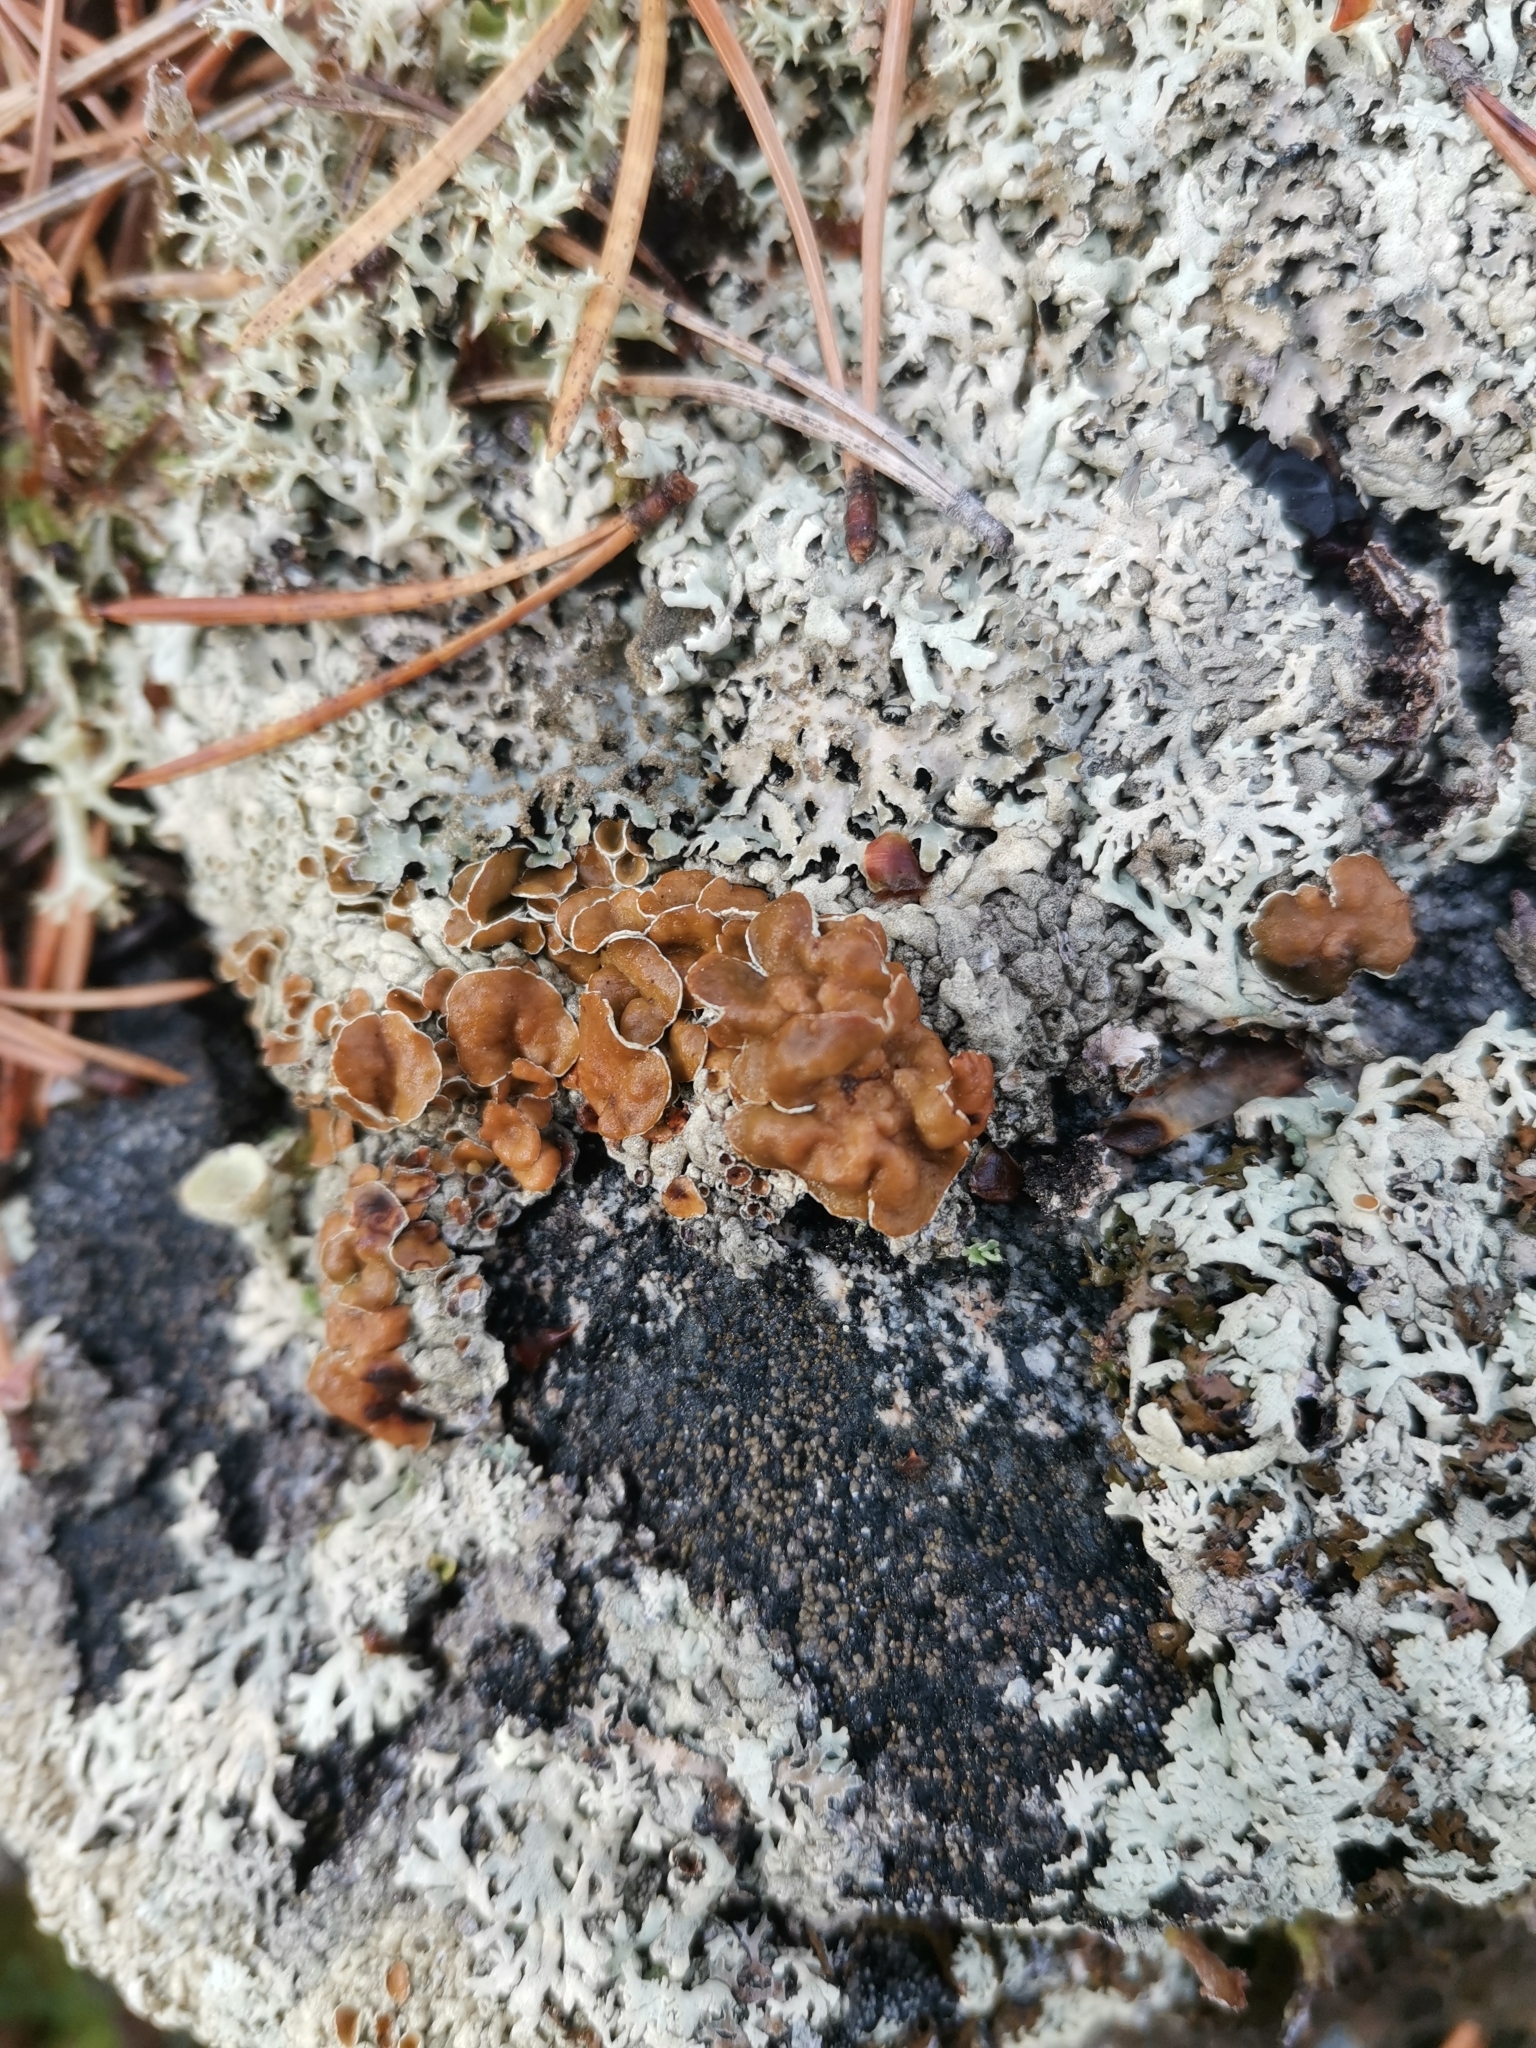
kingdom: Fungi
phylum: Ascomycota
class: Lecanoromycetes
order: Lecanorales
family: Parmeliaceae
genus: Arctoparmelia
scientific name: Arctoparmelia centrifuga
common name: Concentric ring lichen
